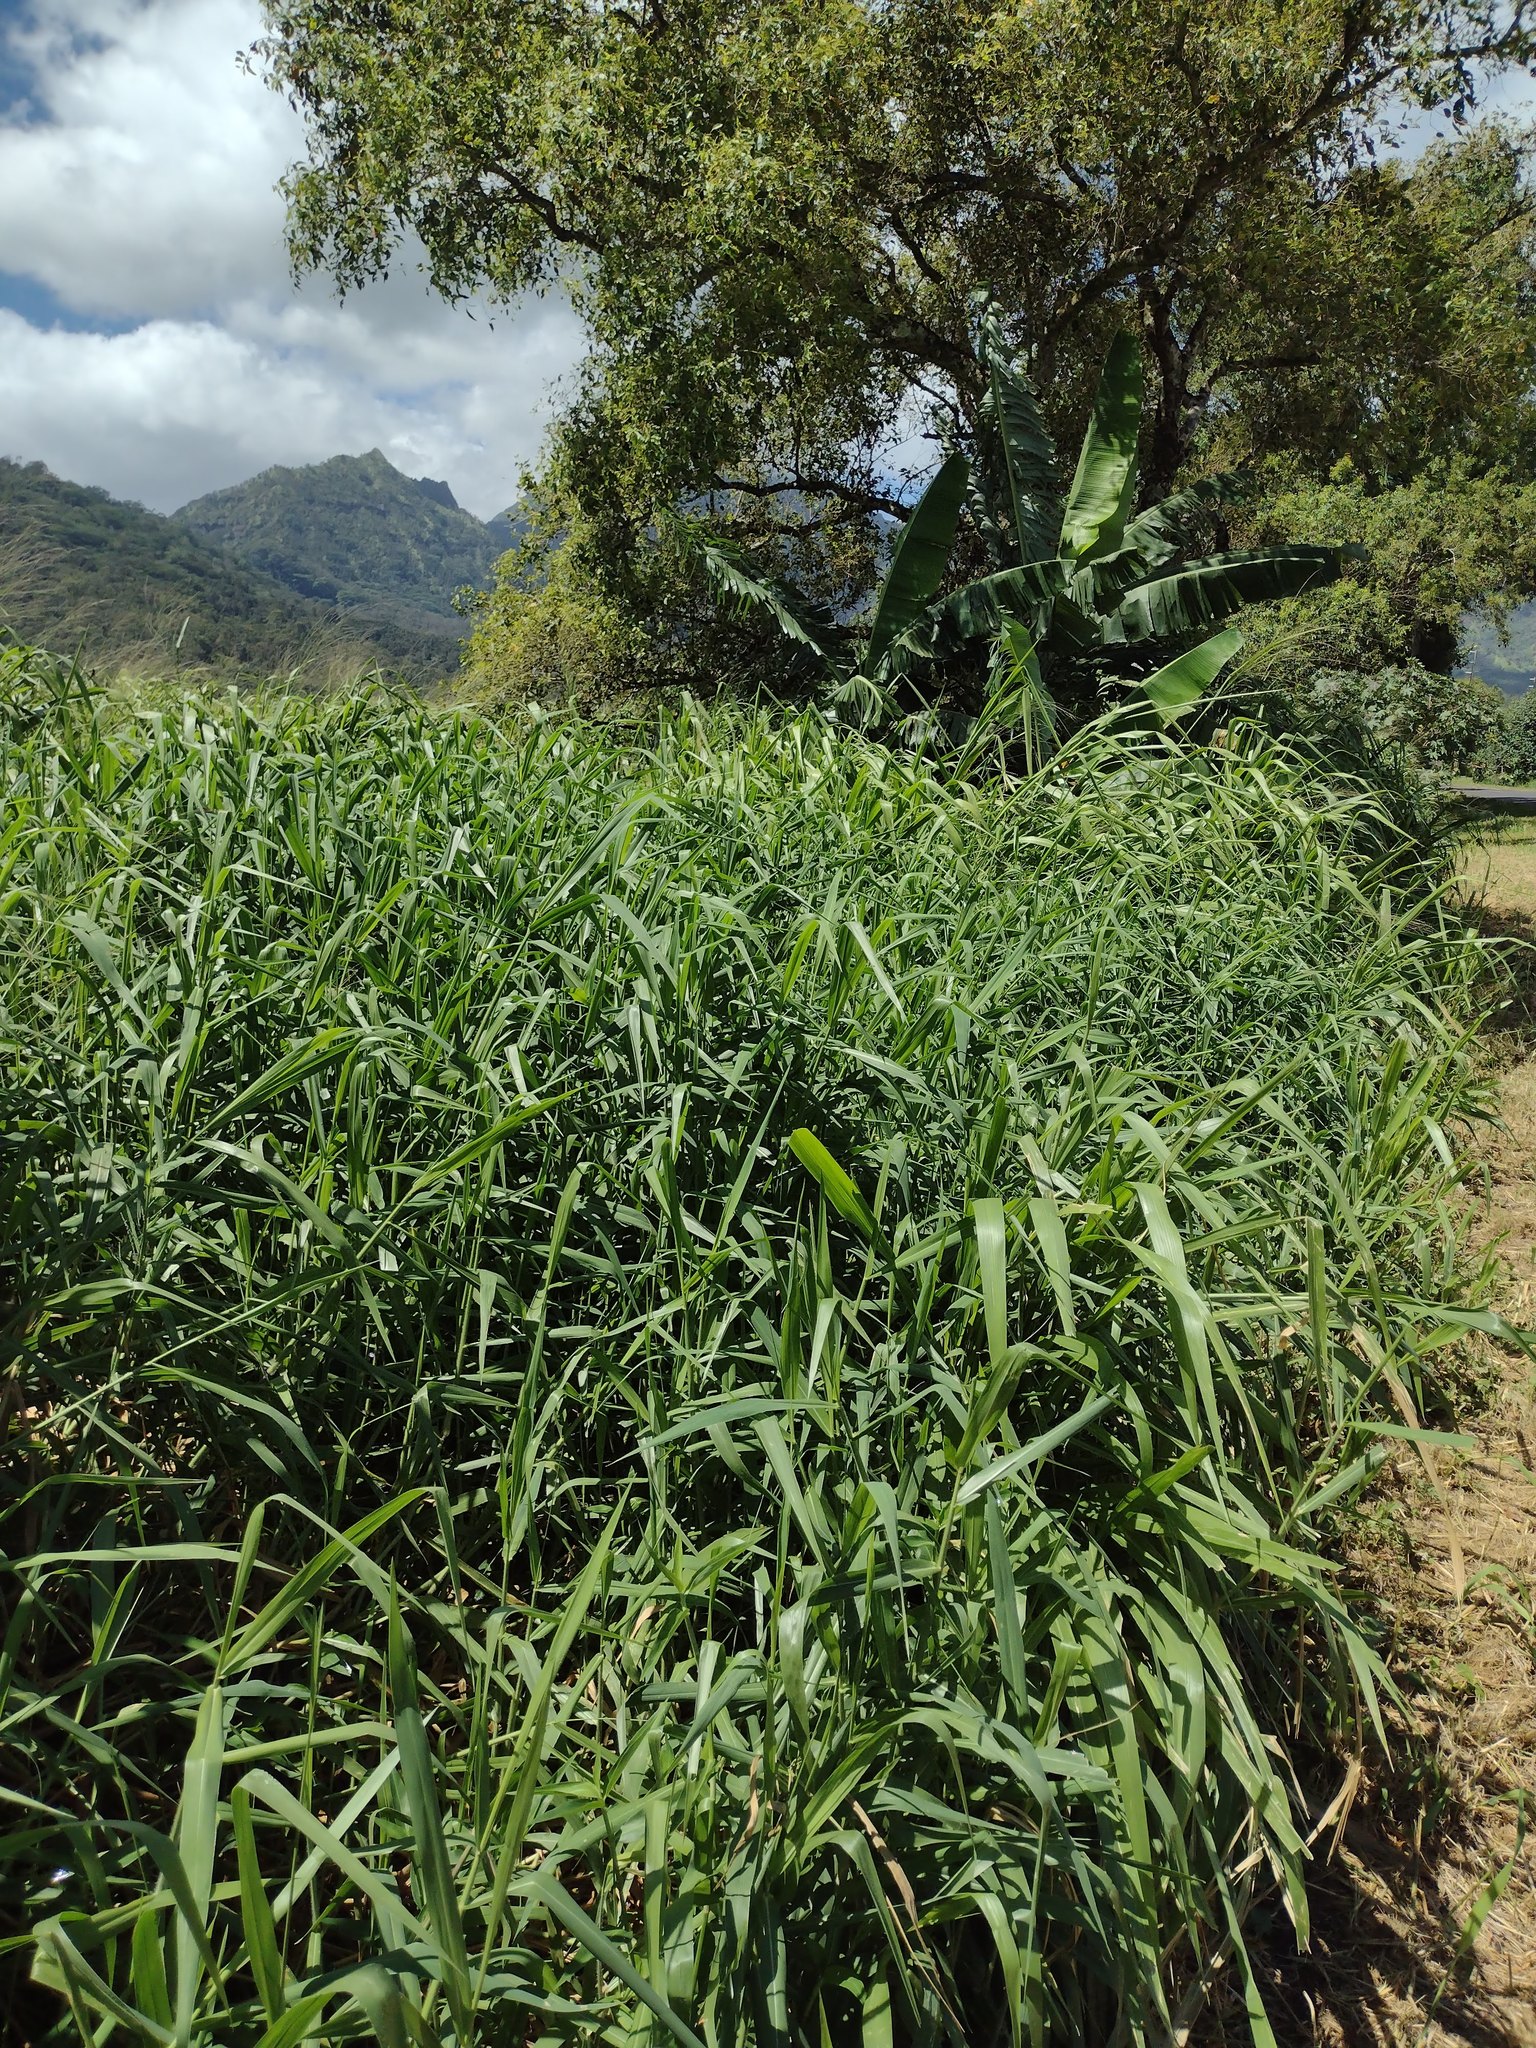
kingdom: Plantae
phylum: Tracheophyta
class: Liliopsida
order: Poales
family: Poaceae
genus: Urochloa
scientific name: Urochloa mutica
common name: Para grass
